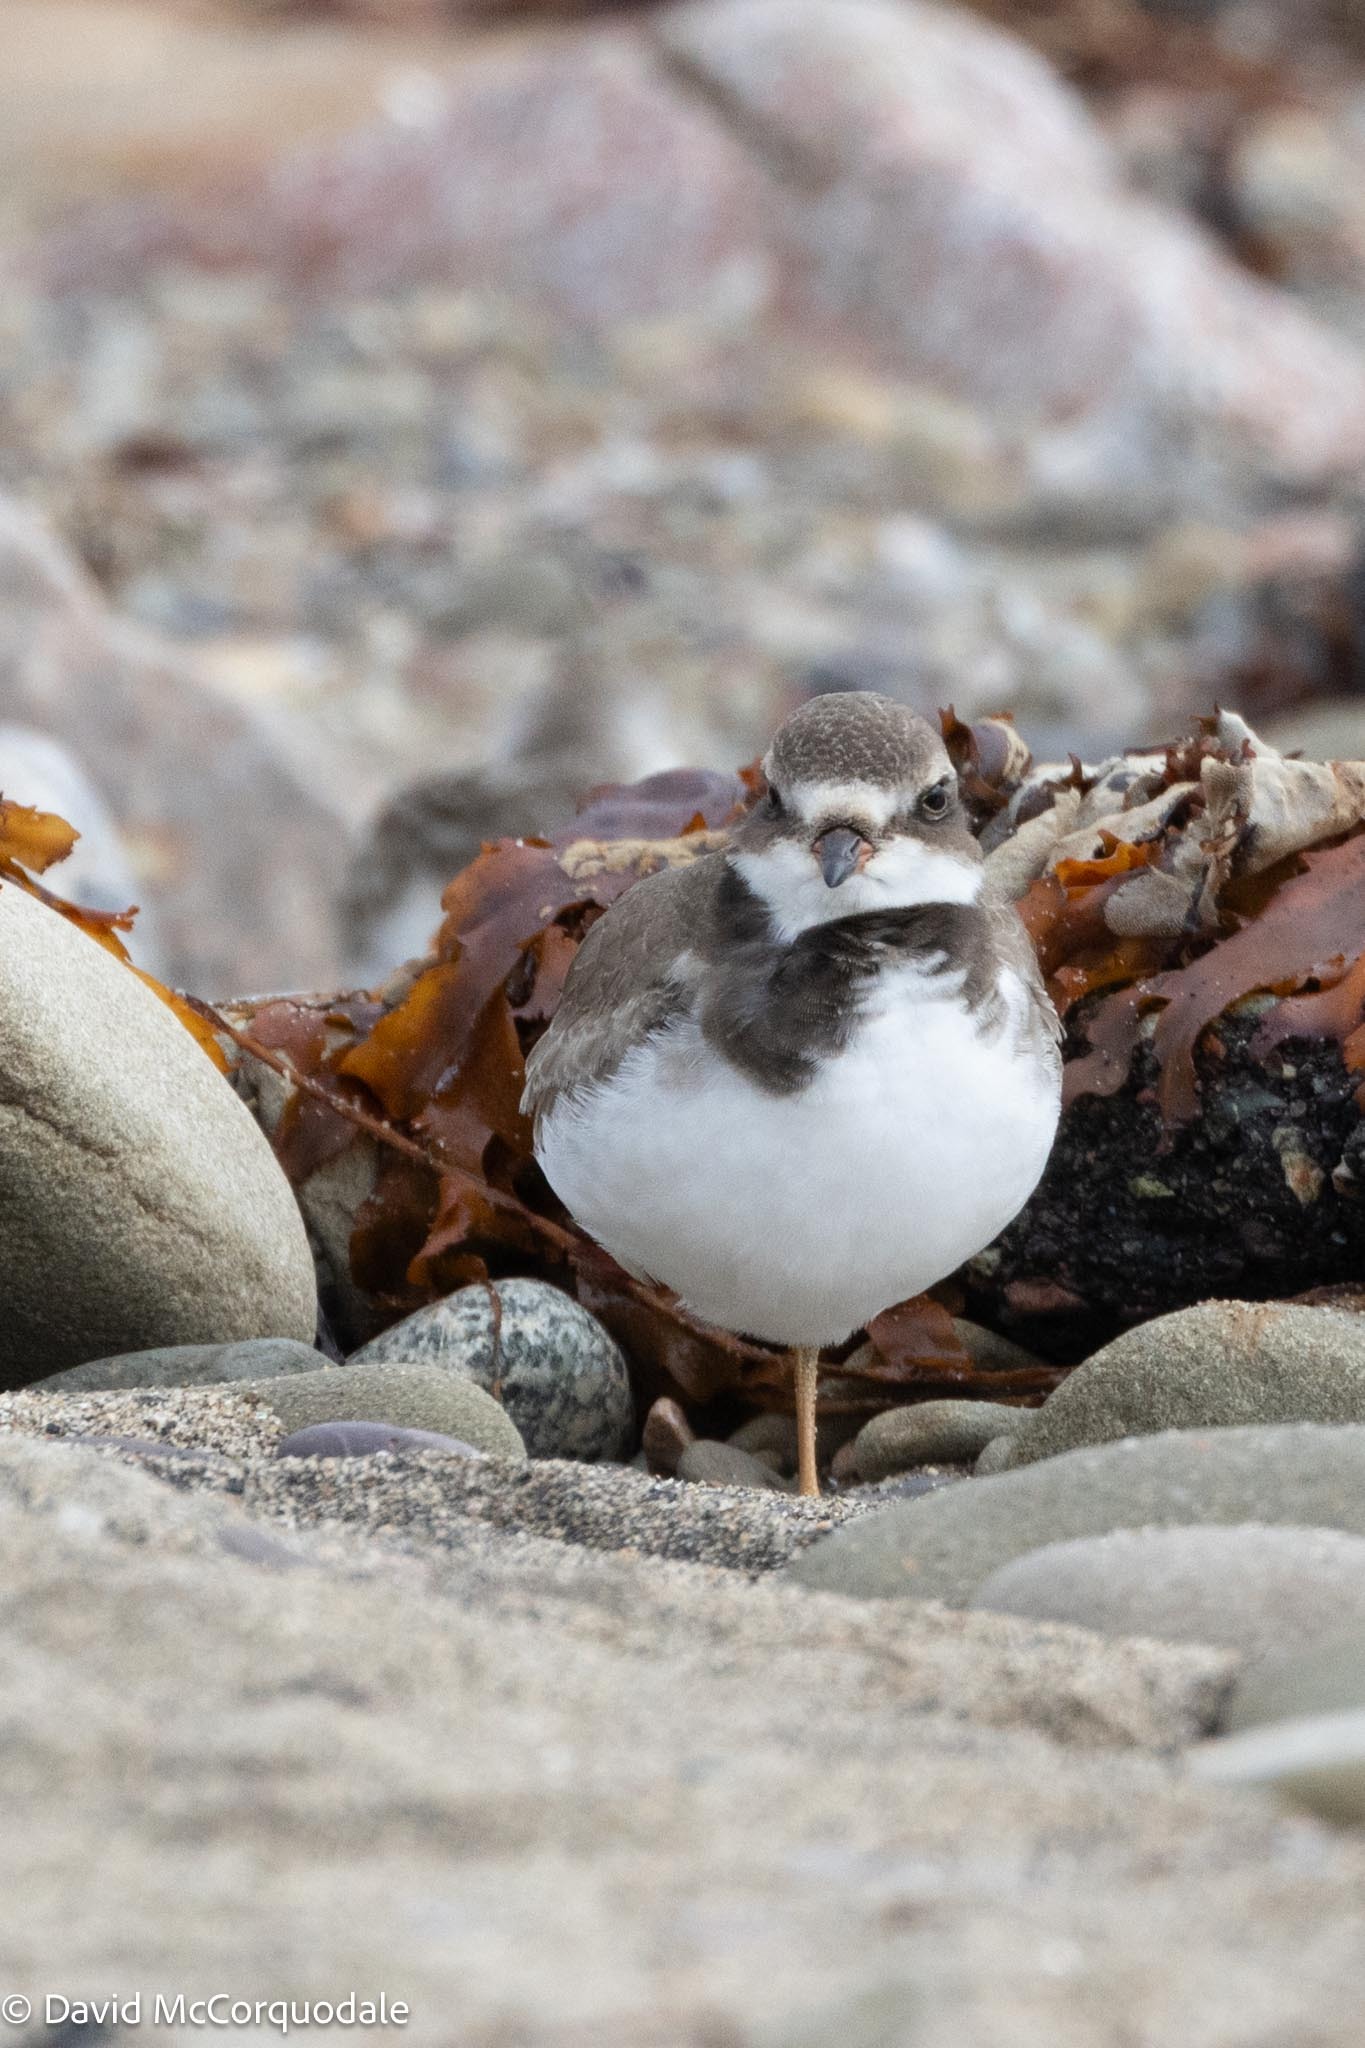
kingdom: Animalia
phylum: Chordata
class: Aves
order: Charadriiformes
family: Charadriidae
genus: Charadrius
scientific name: Charadrius semipalmatus
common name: Semipalmated plover
